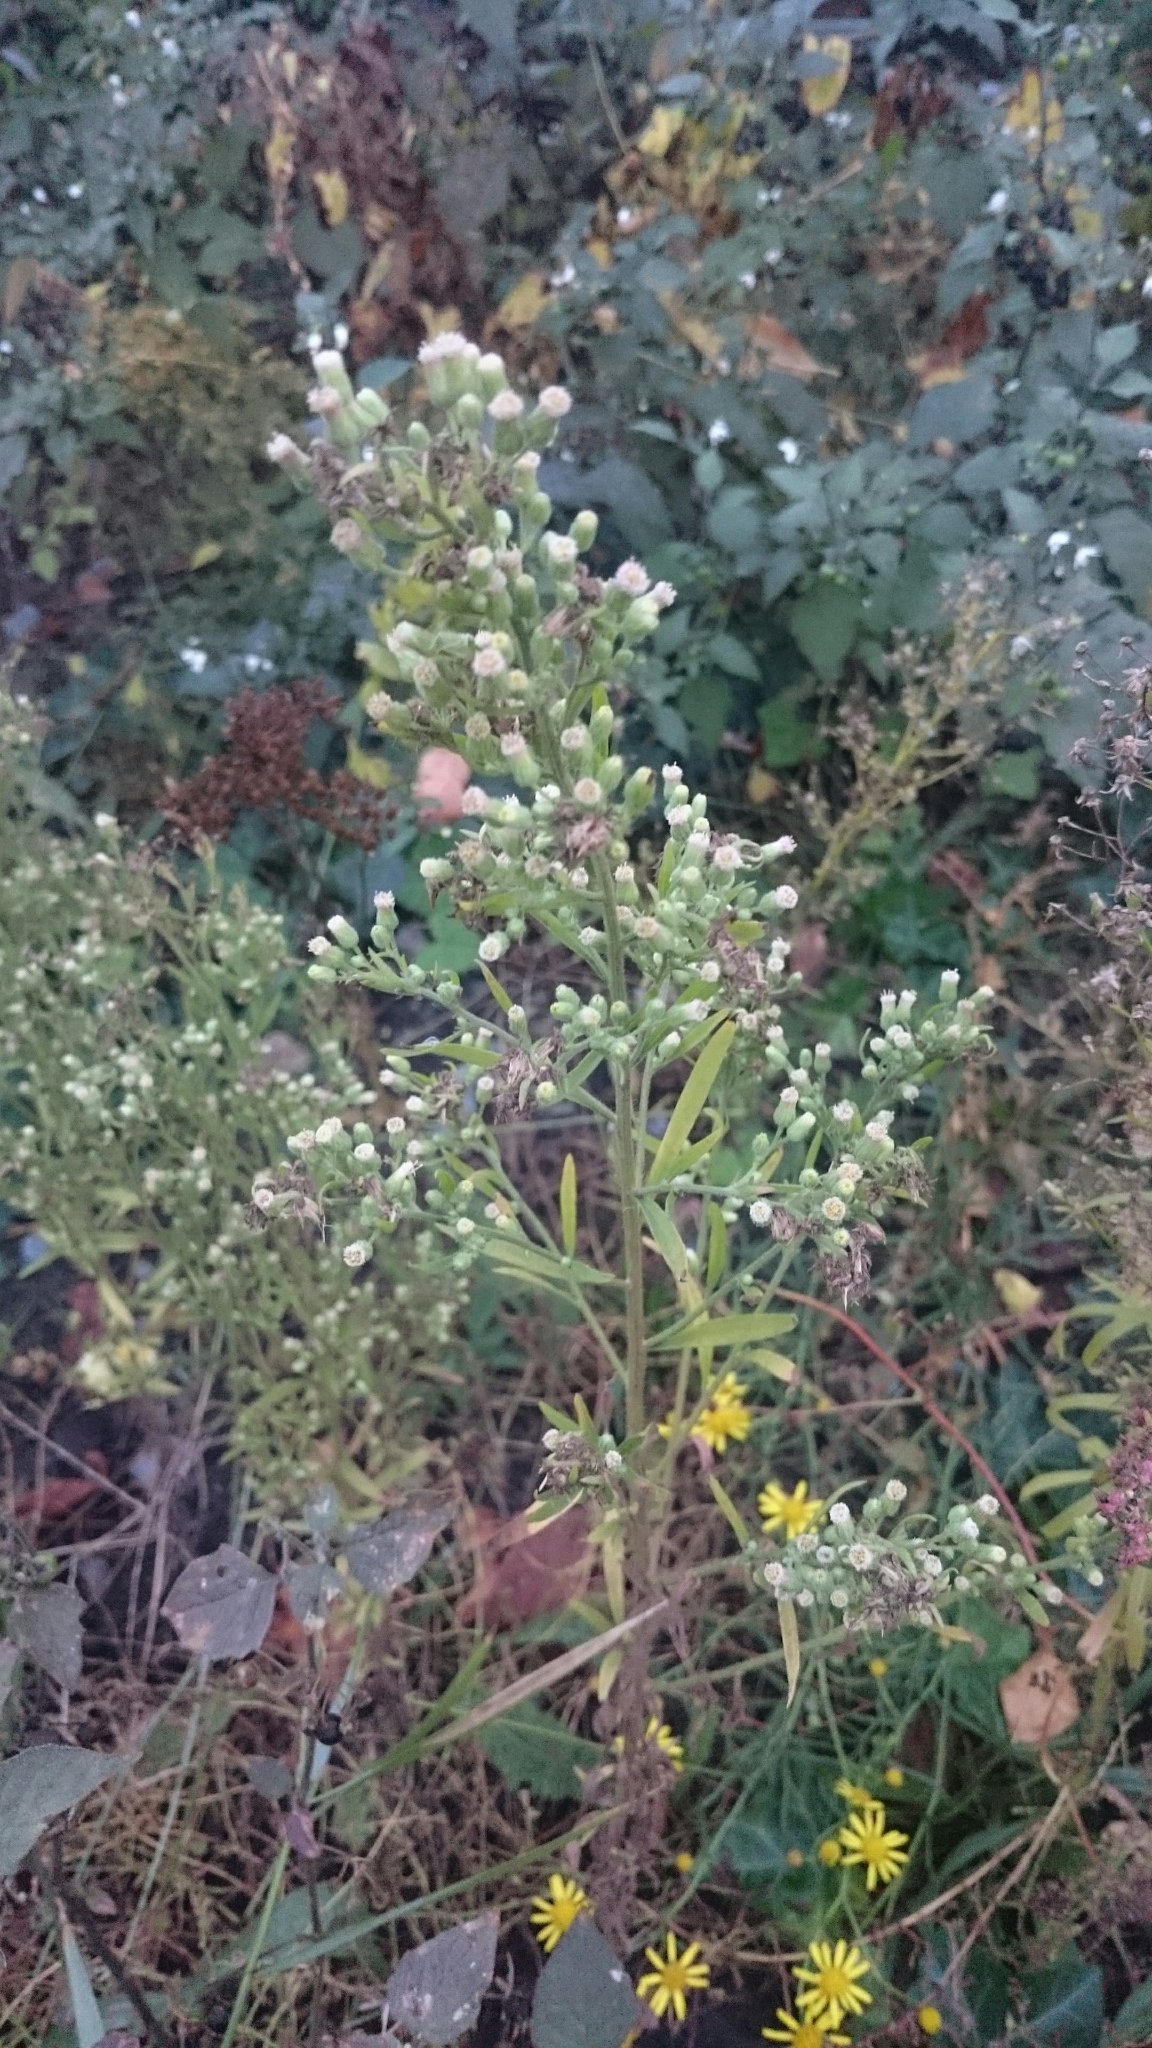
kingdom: Plantae
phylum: Tracheophyta
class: Magnoliopsida
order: Asterales
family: Asteraceae
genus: Erigeron
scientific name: Erigeron sumatrensis
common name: Daisy
